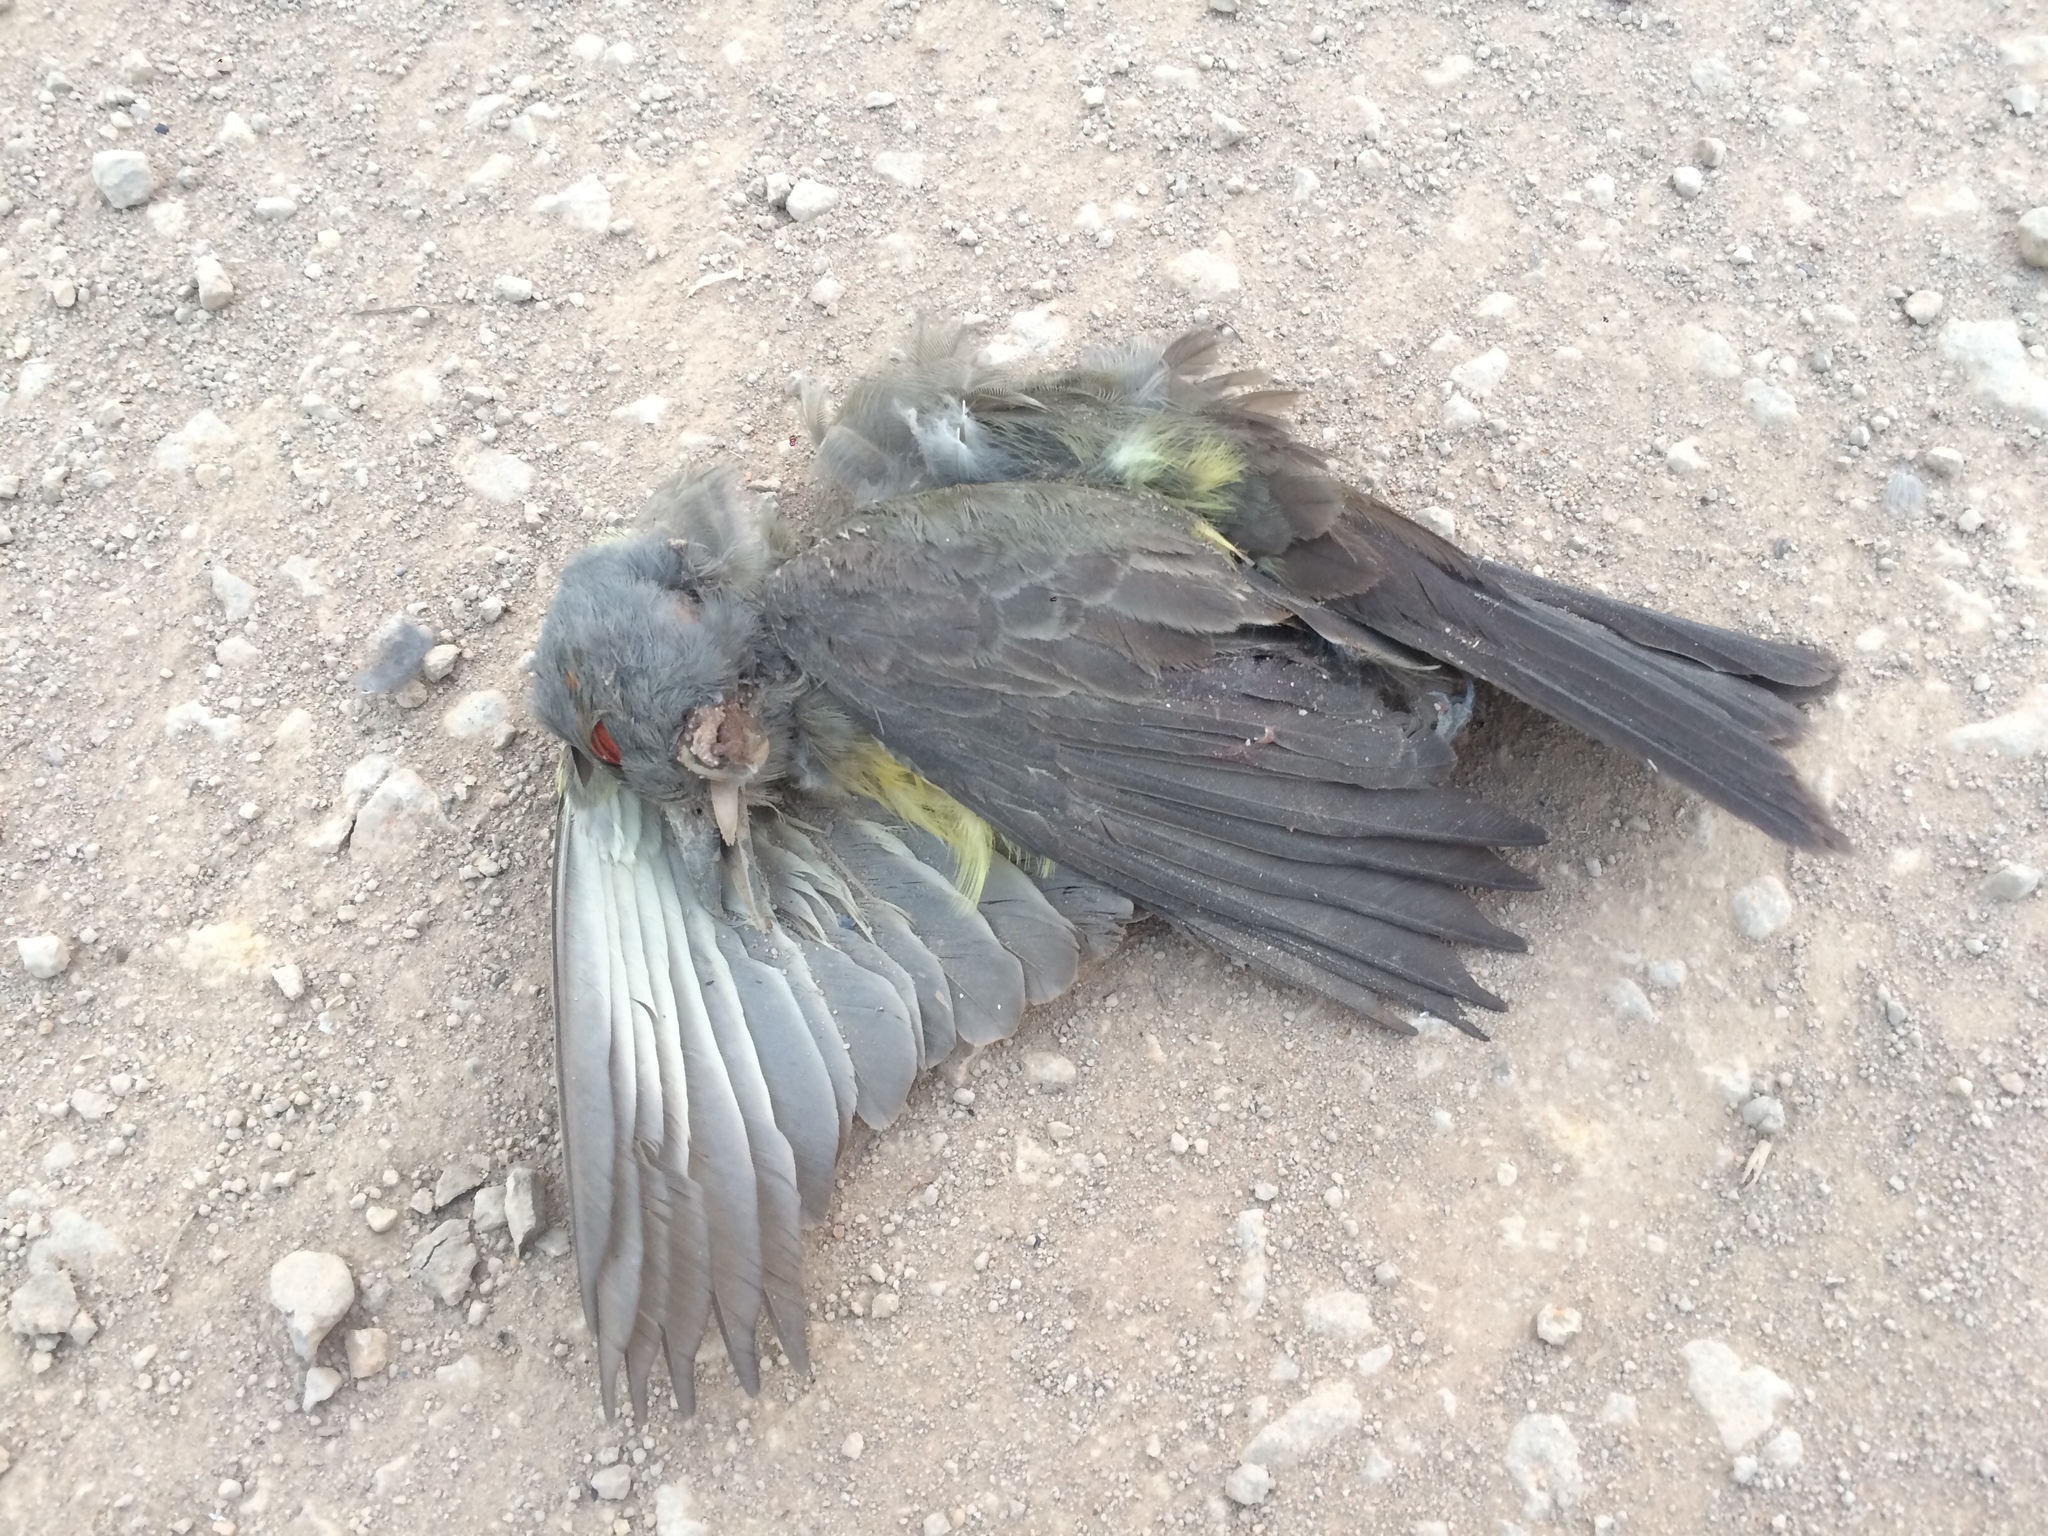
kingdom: Animalia
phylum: Chordata
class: Aves
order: Passeriformes
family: Tyrannidae
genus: Tyrannus
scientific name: Tyrannus melancholicus
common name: Tropical kingbird
